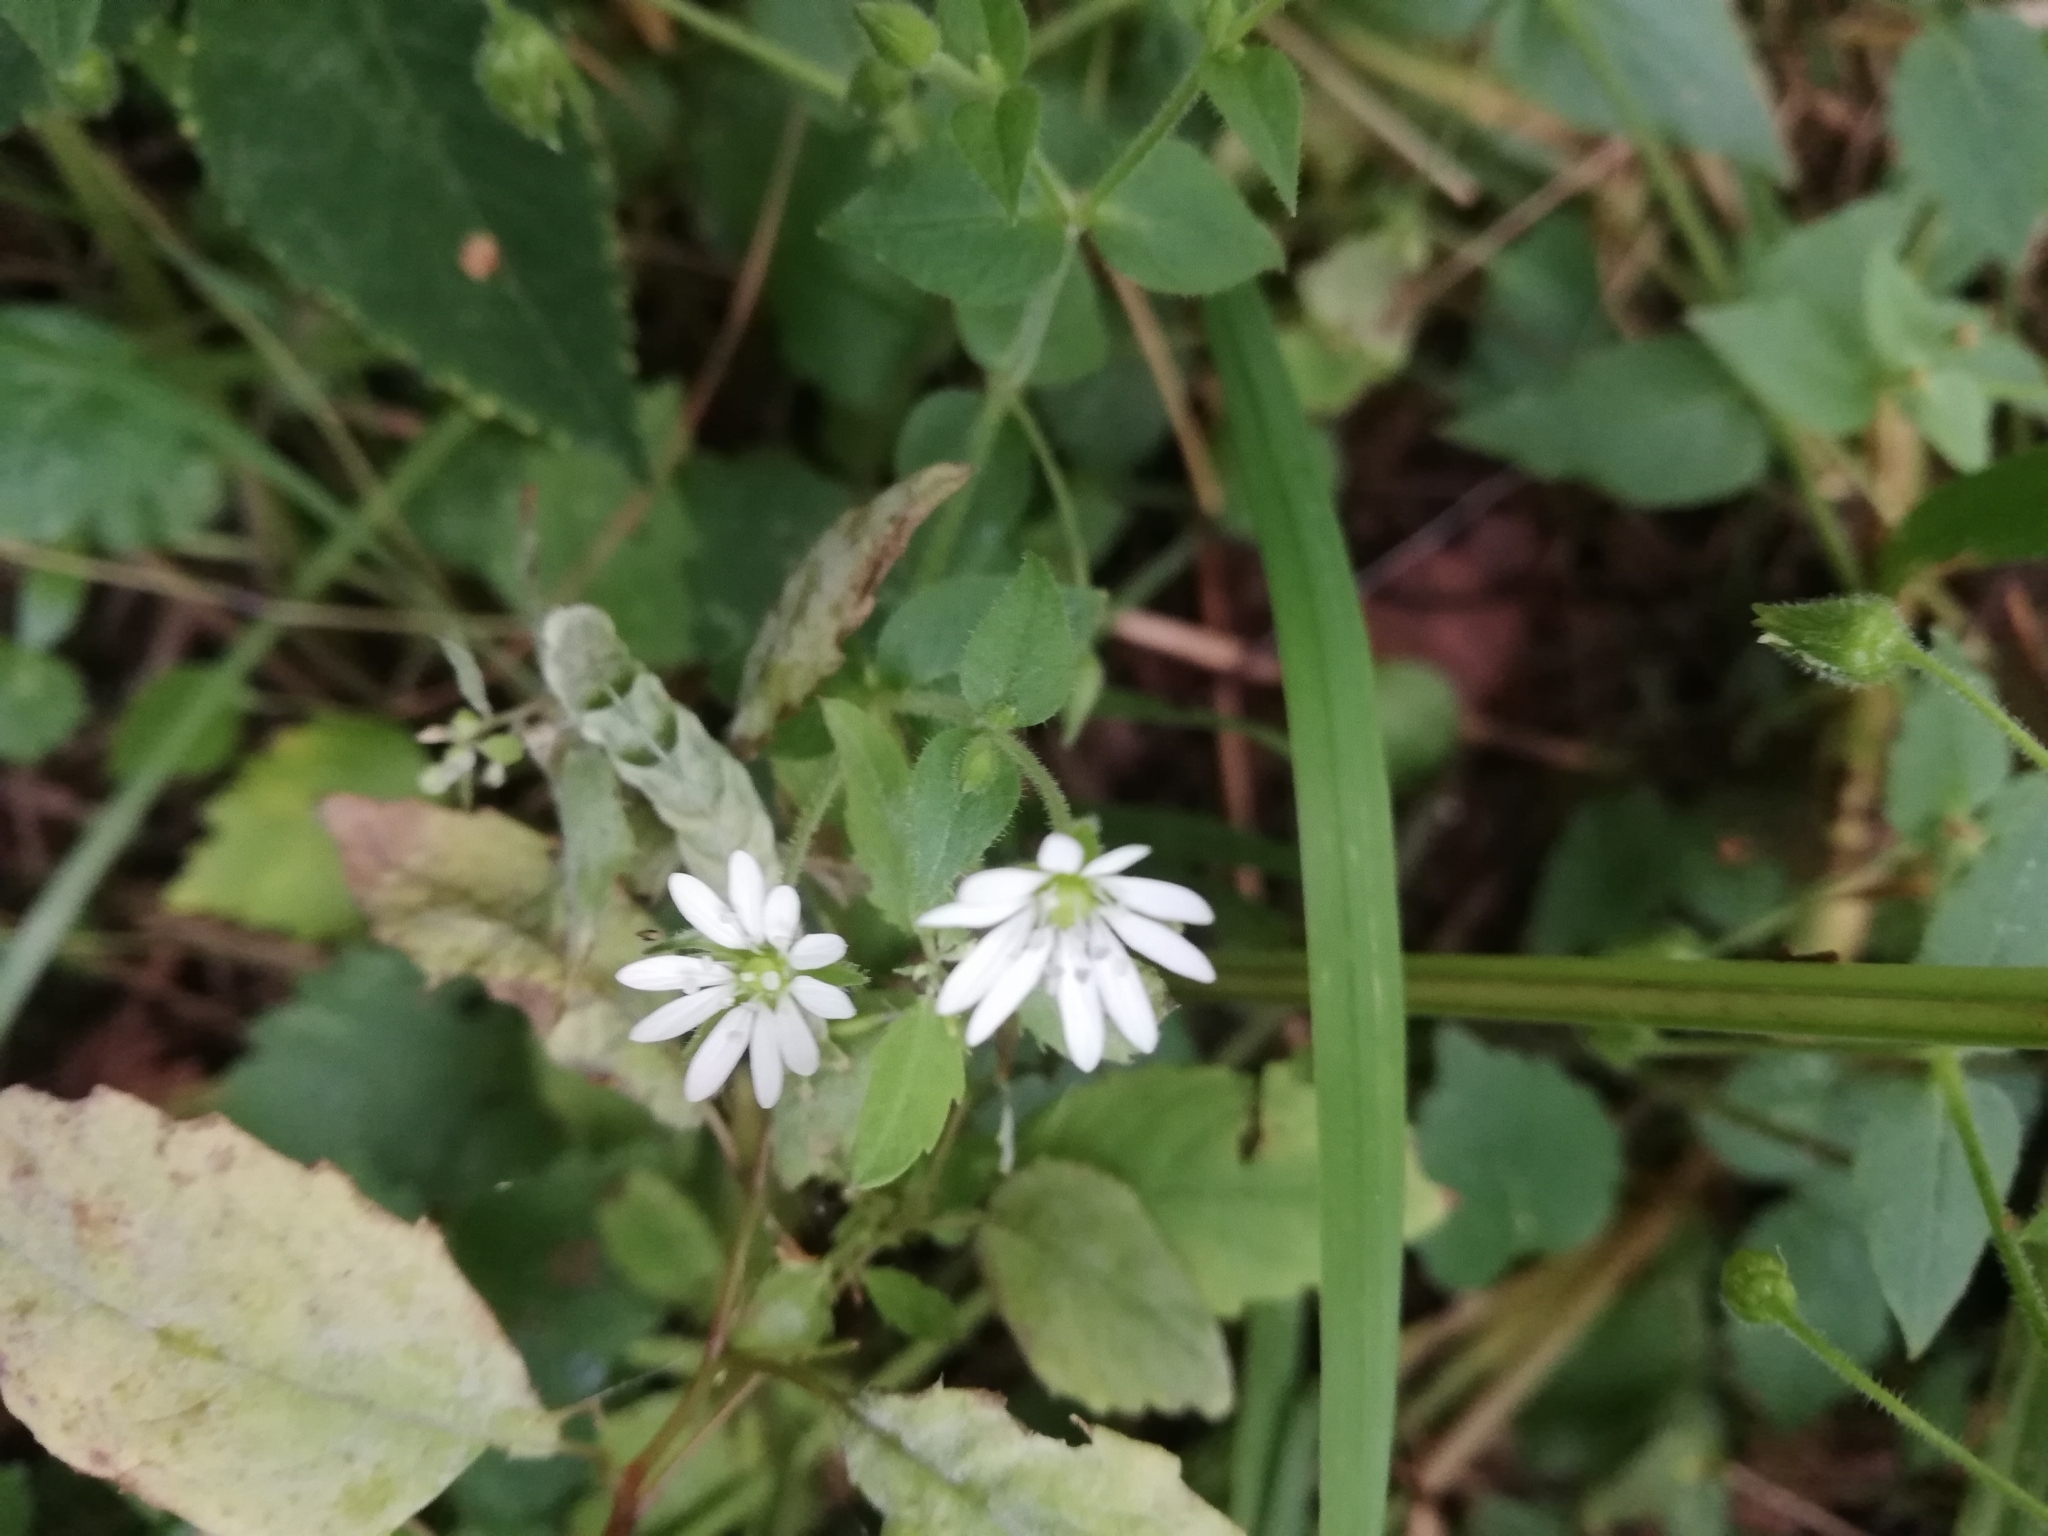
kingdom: Plantae
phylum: Tracheophyta
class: Magnoliopsida
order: Caryophyllales
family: Caryophyllaceae
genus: Stellaria
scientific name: Stellaria aquatica
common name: Water chickweed
